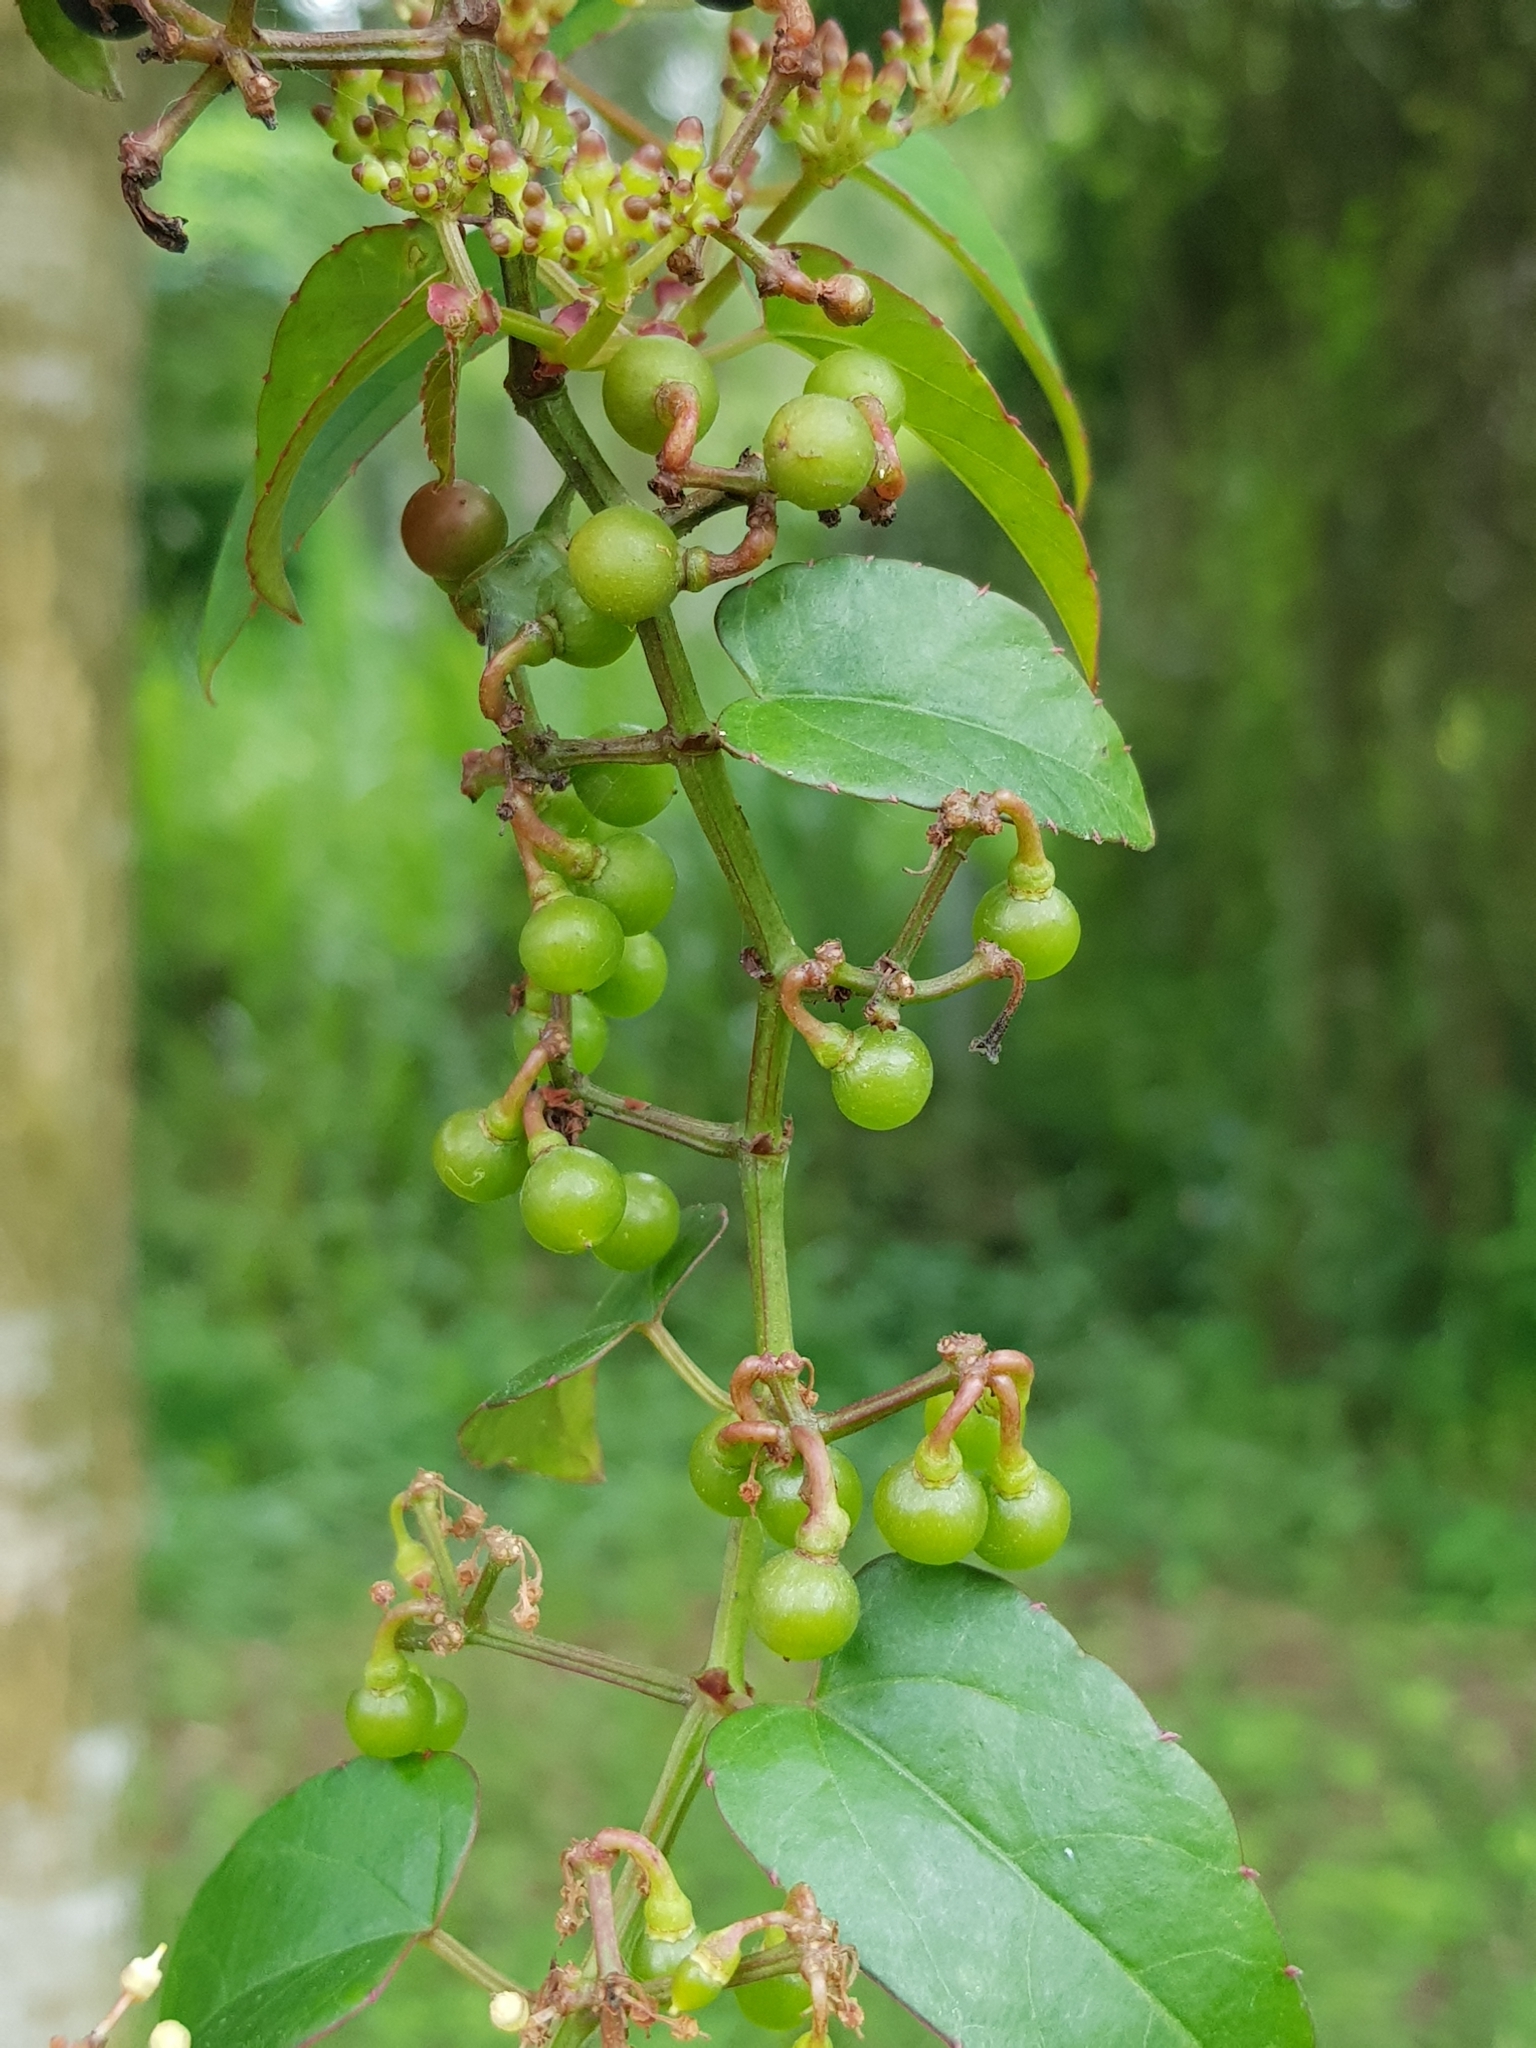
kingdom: Plantae
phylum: Tracheophyta
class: Magnoliopsida
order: Vitales
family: Vitaceae
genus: Cissus
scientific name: Cissus hastata
